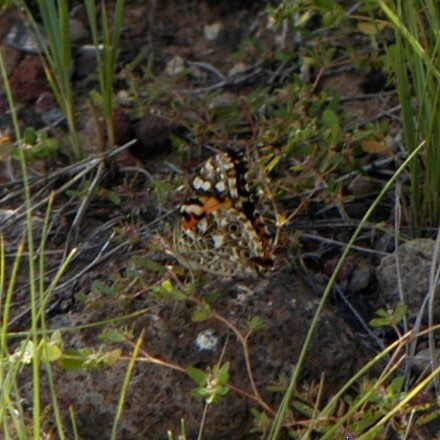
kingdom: Animalia
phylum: Arthropoda
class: Insecta
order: Lepidoptera
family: Nymphalidae
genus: Vanessa
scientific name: Vanessa cardui
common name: Painted lady
